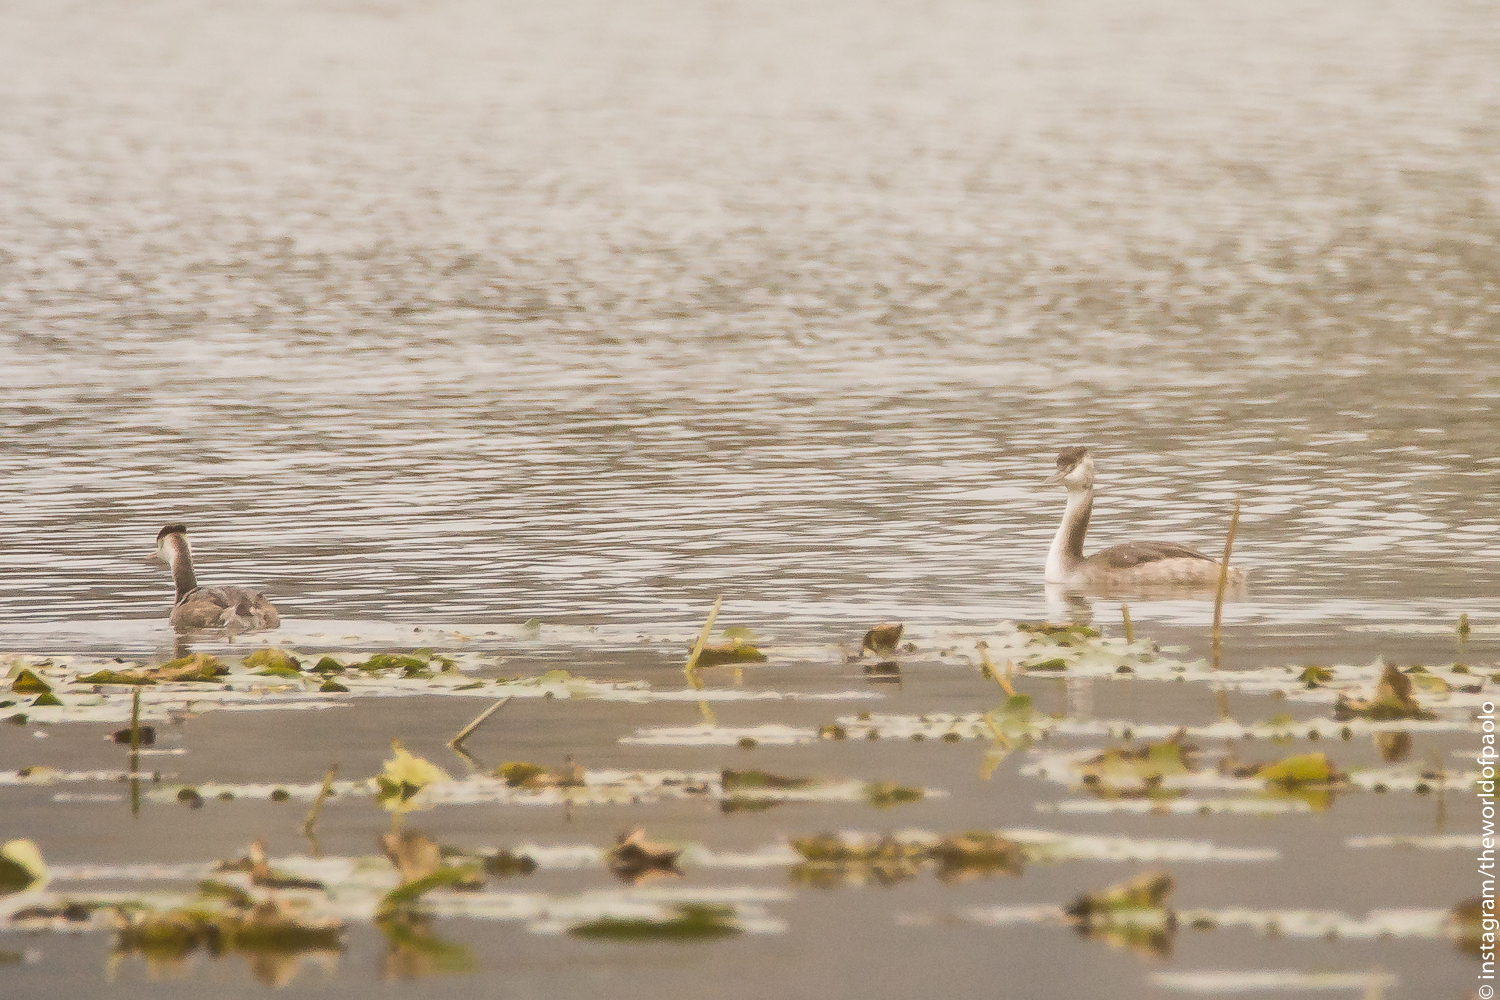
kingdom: Animalia
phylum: Chordata
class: Aves
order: Podicipediformes
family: Podicipedidae
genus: Podiceps
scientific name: Podiceps cristatus
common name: Great crested grebe
